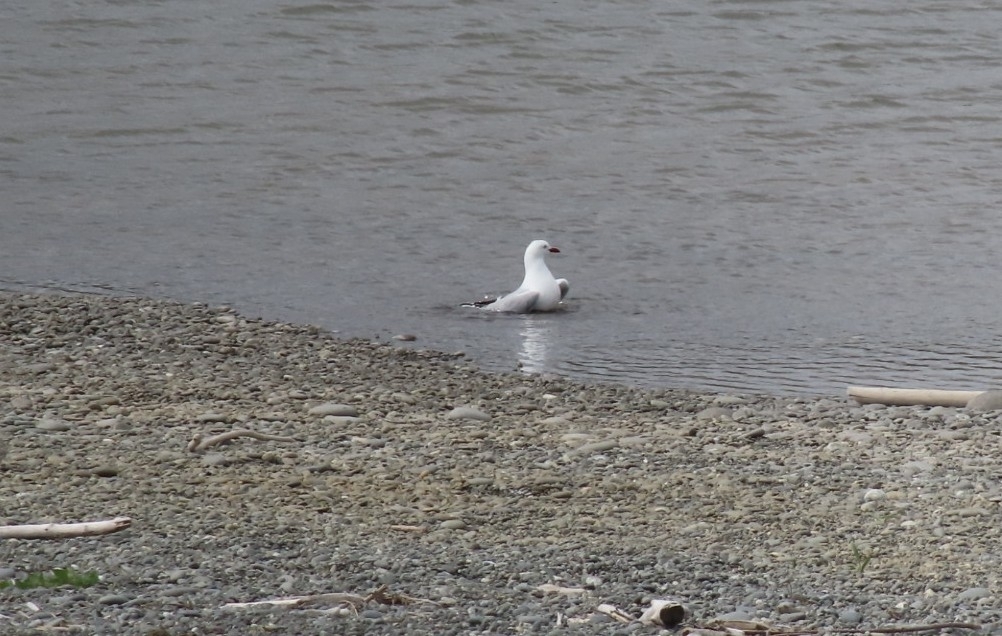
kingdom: Animalia
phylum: Chordata
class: Aves
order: Charadriiformes
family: Laridae
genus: Chroicocephalus
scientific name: Chroicocephalus novaehollandiae
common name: Silver gull
